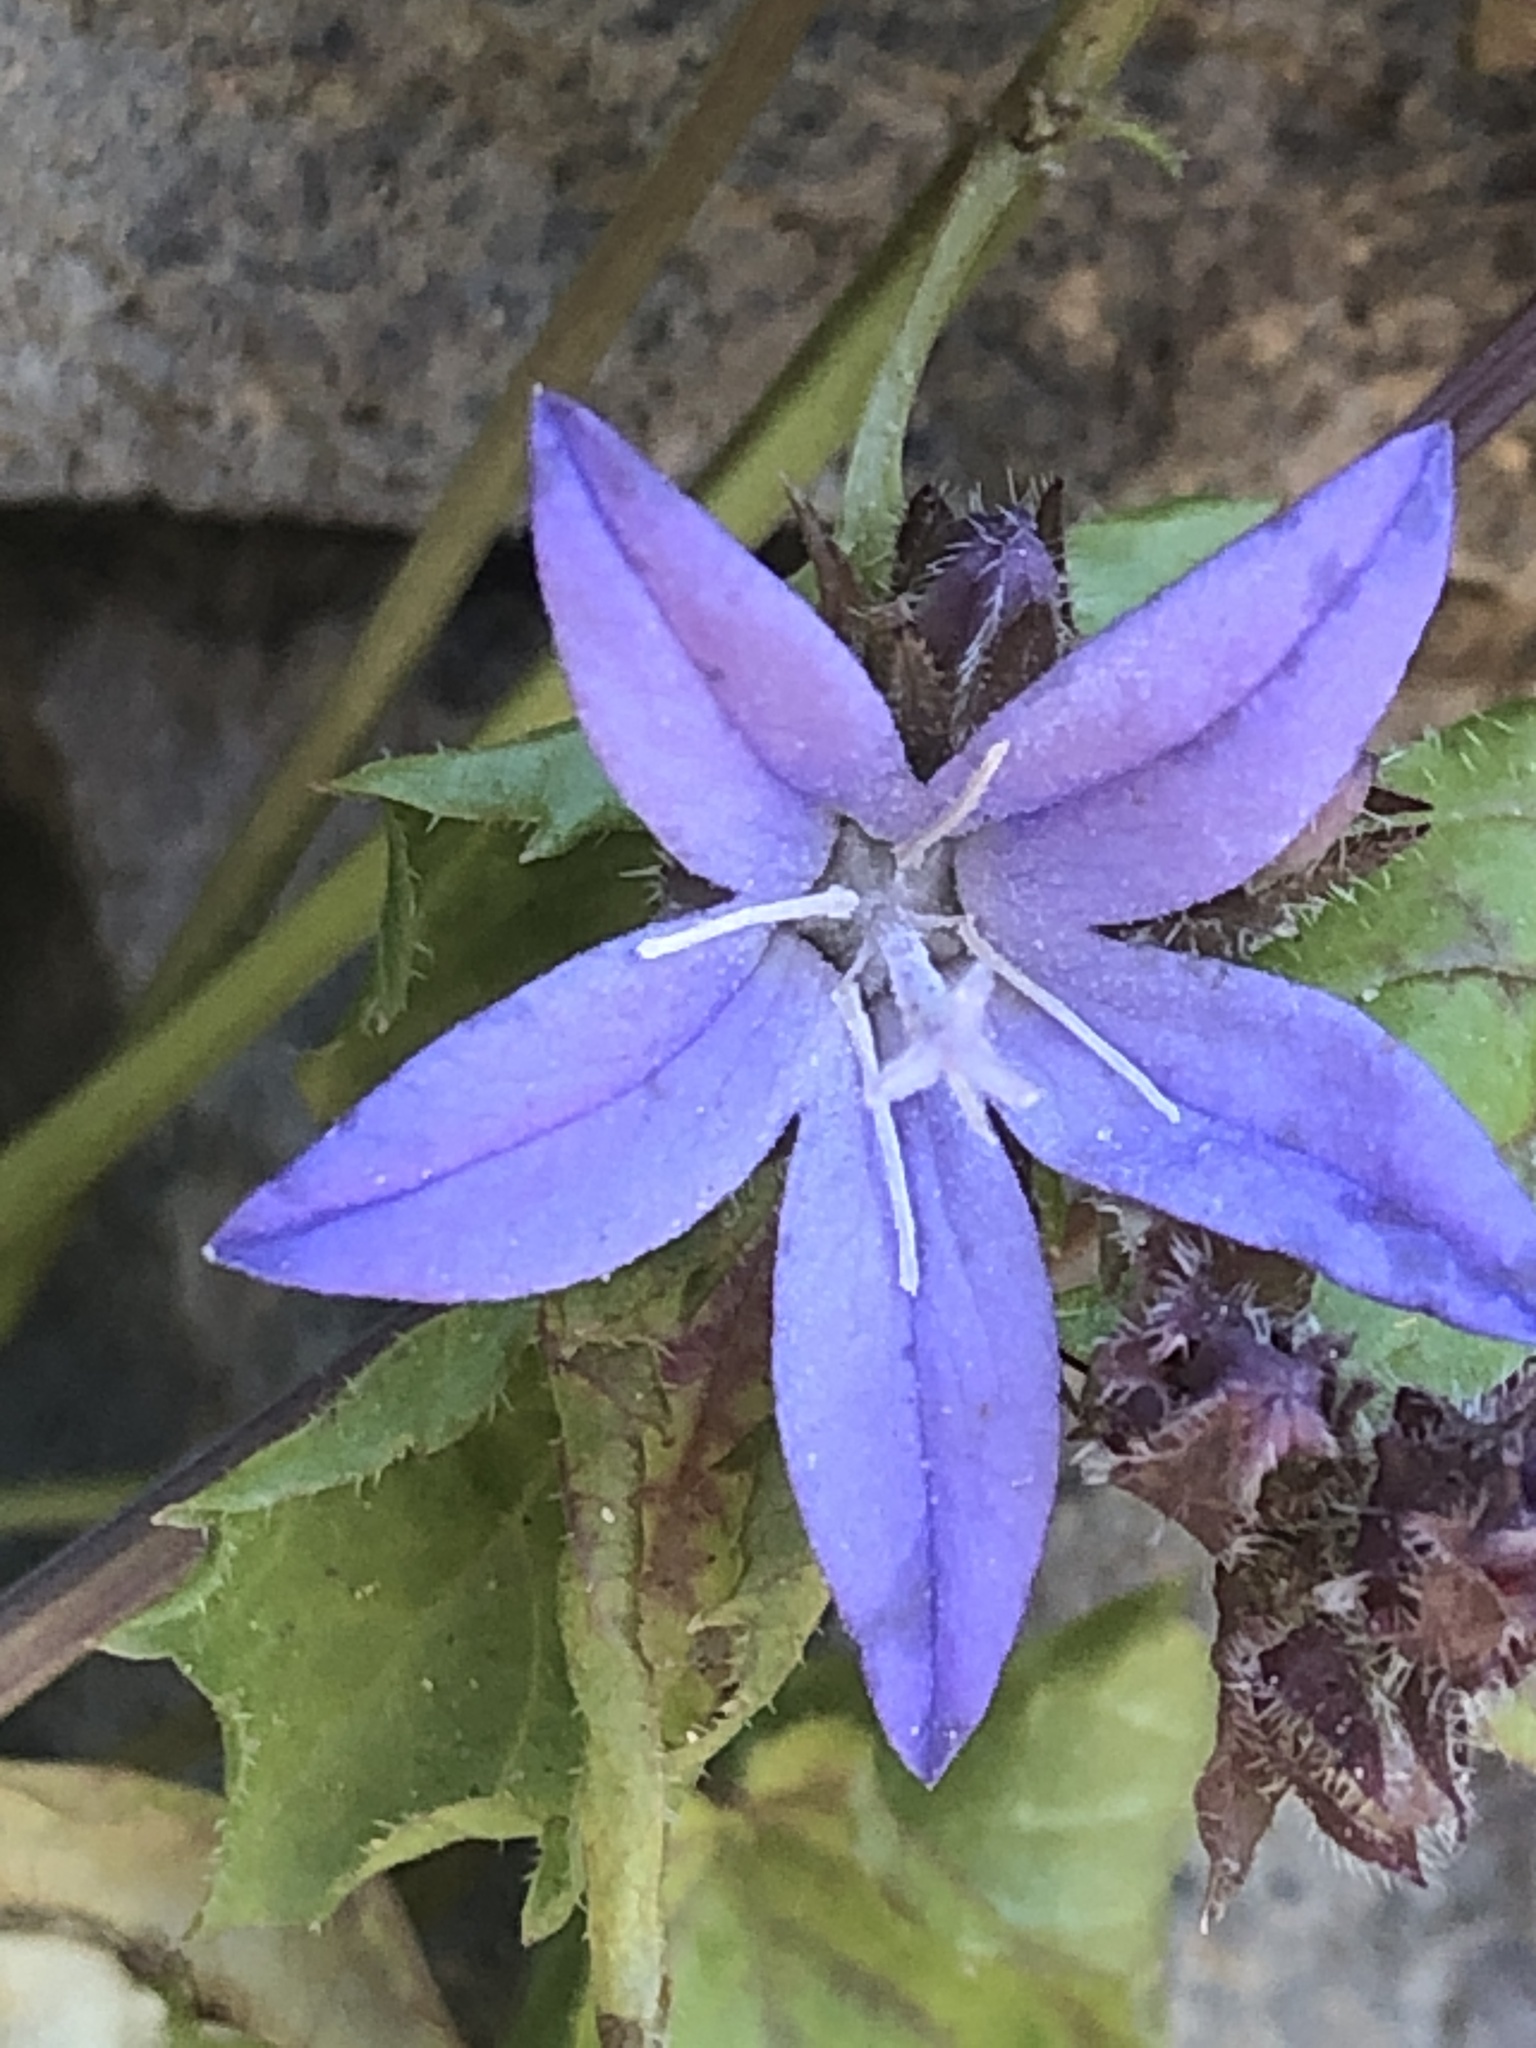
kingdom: Plantae
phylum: Tracheophyta
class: Magnoliopsida
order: Asterales
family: Campanulaceae
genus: Campanula
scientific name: Campanula poscharskyana
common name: Trailing bellflower
